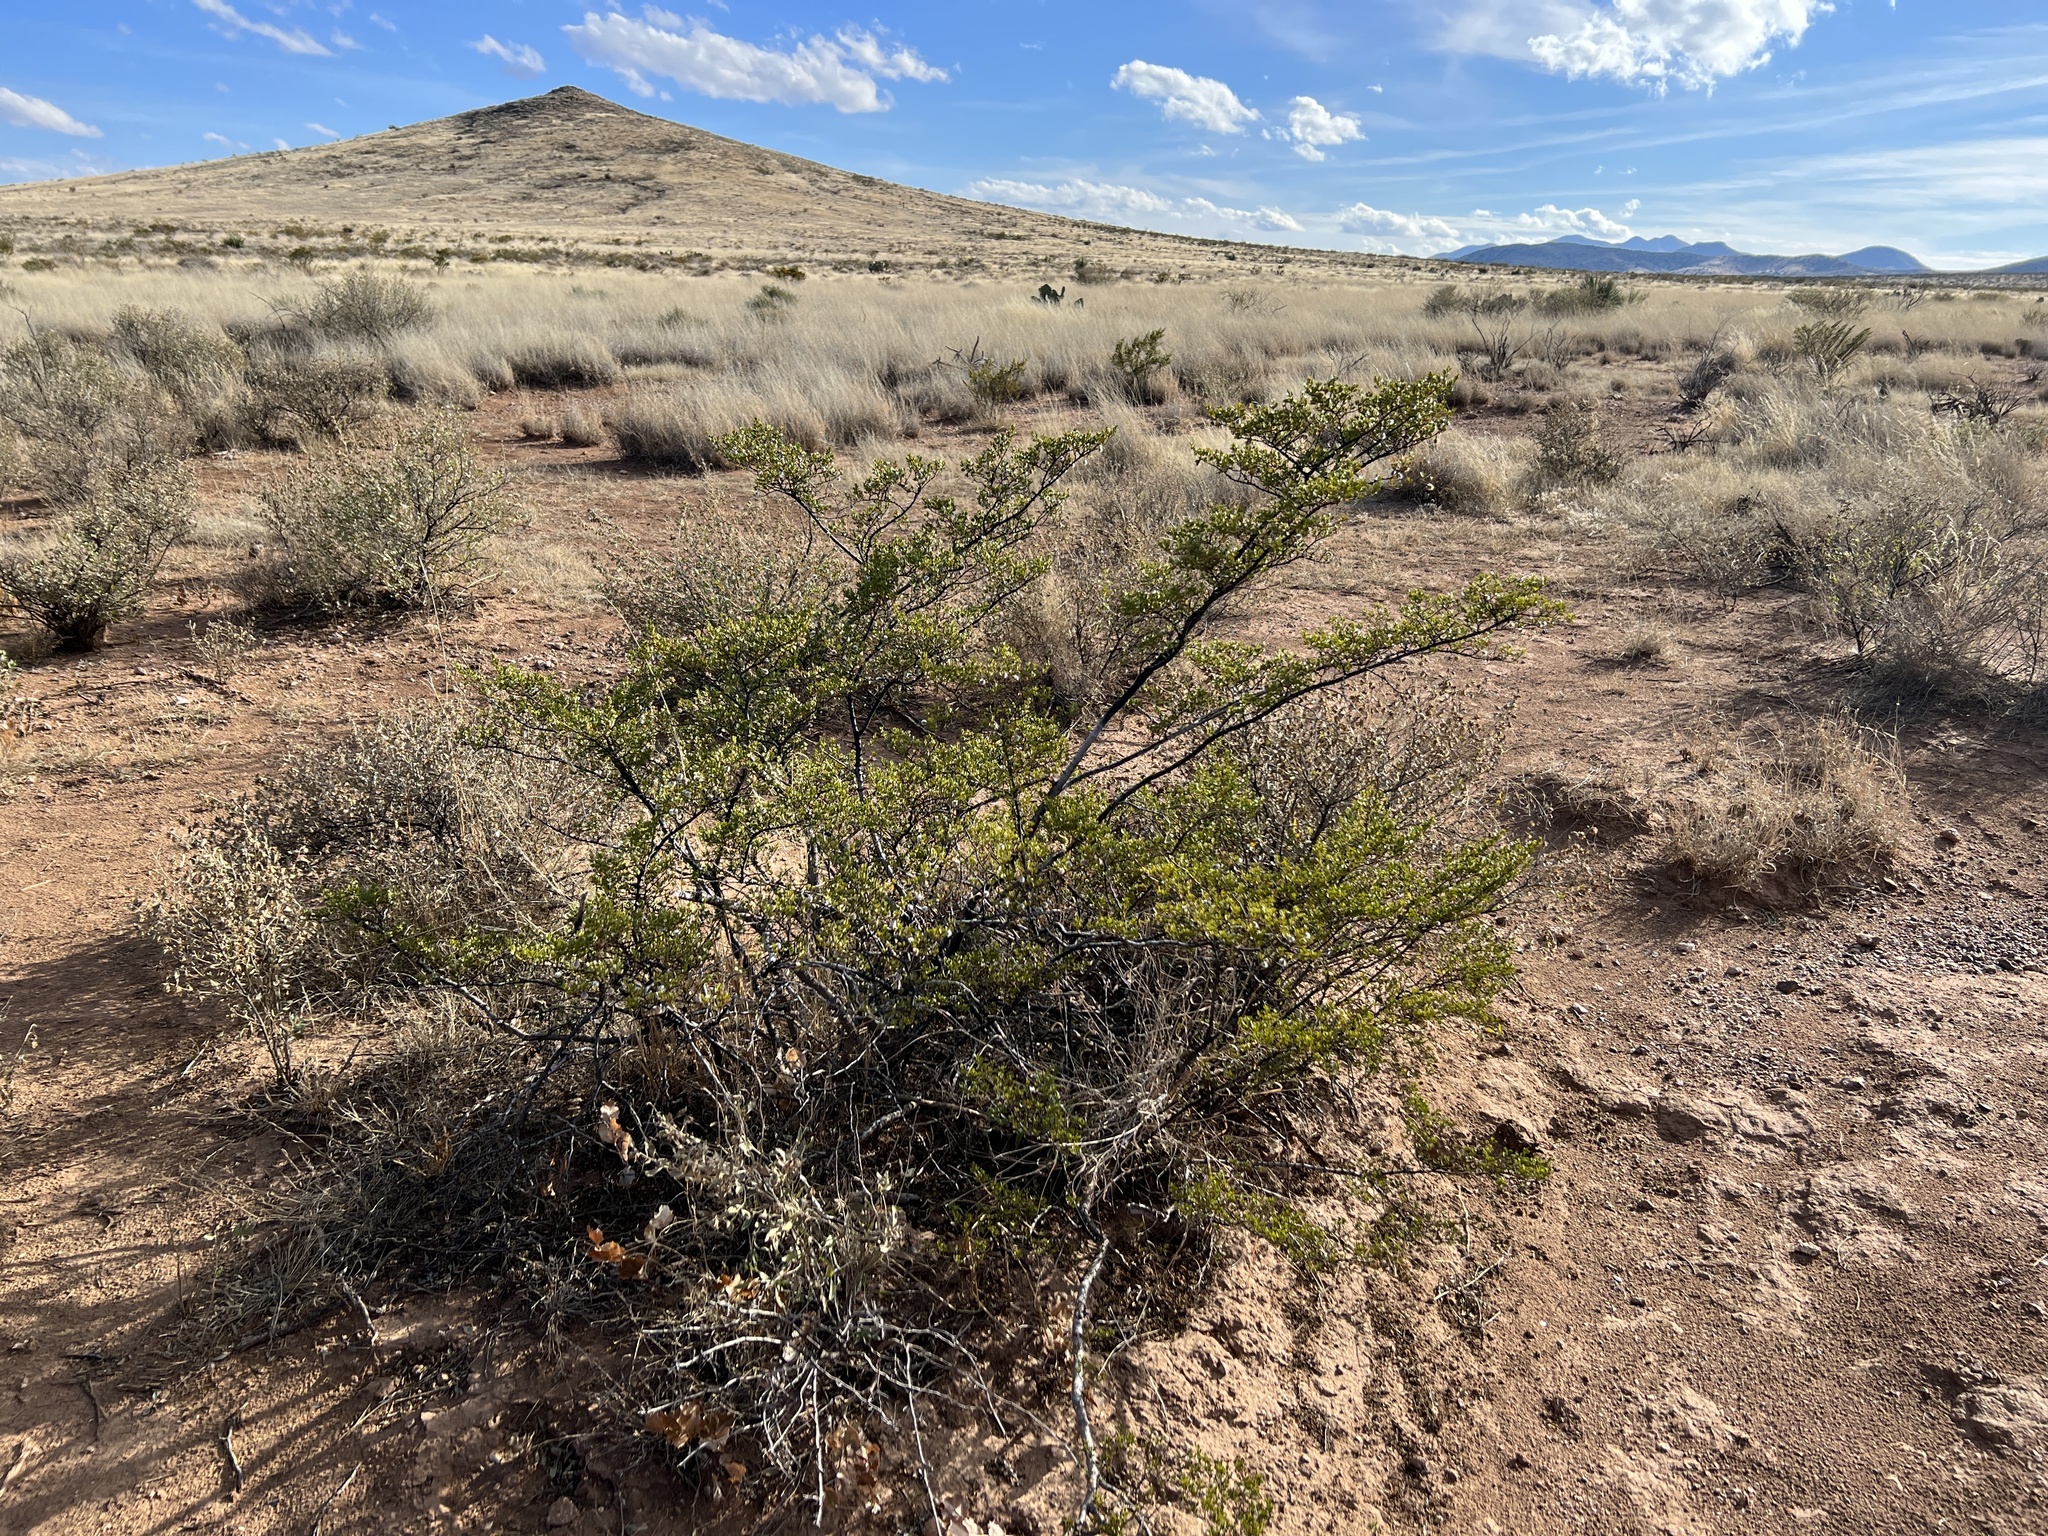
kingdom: Plantae
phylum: Tracheophyta
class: Magnoliopsida
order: Zygophyllales
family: Zygophyllaceae
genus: Larrea
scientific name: Larrea tridentata
